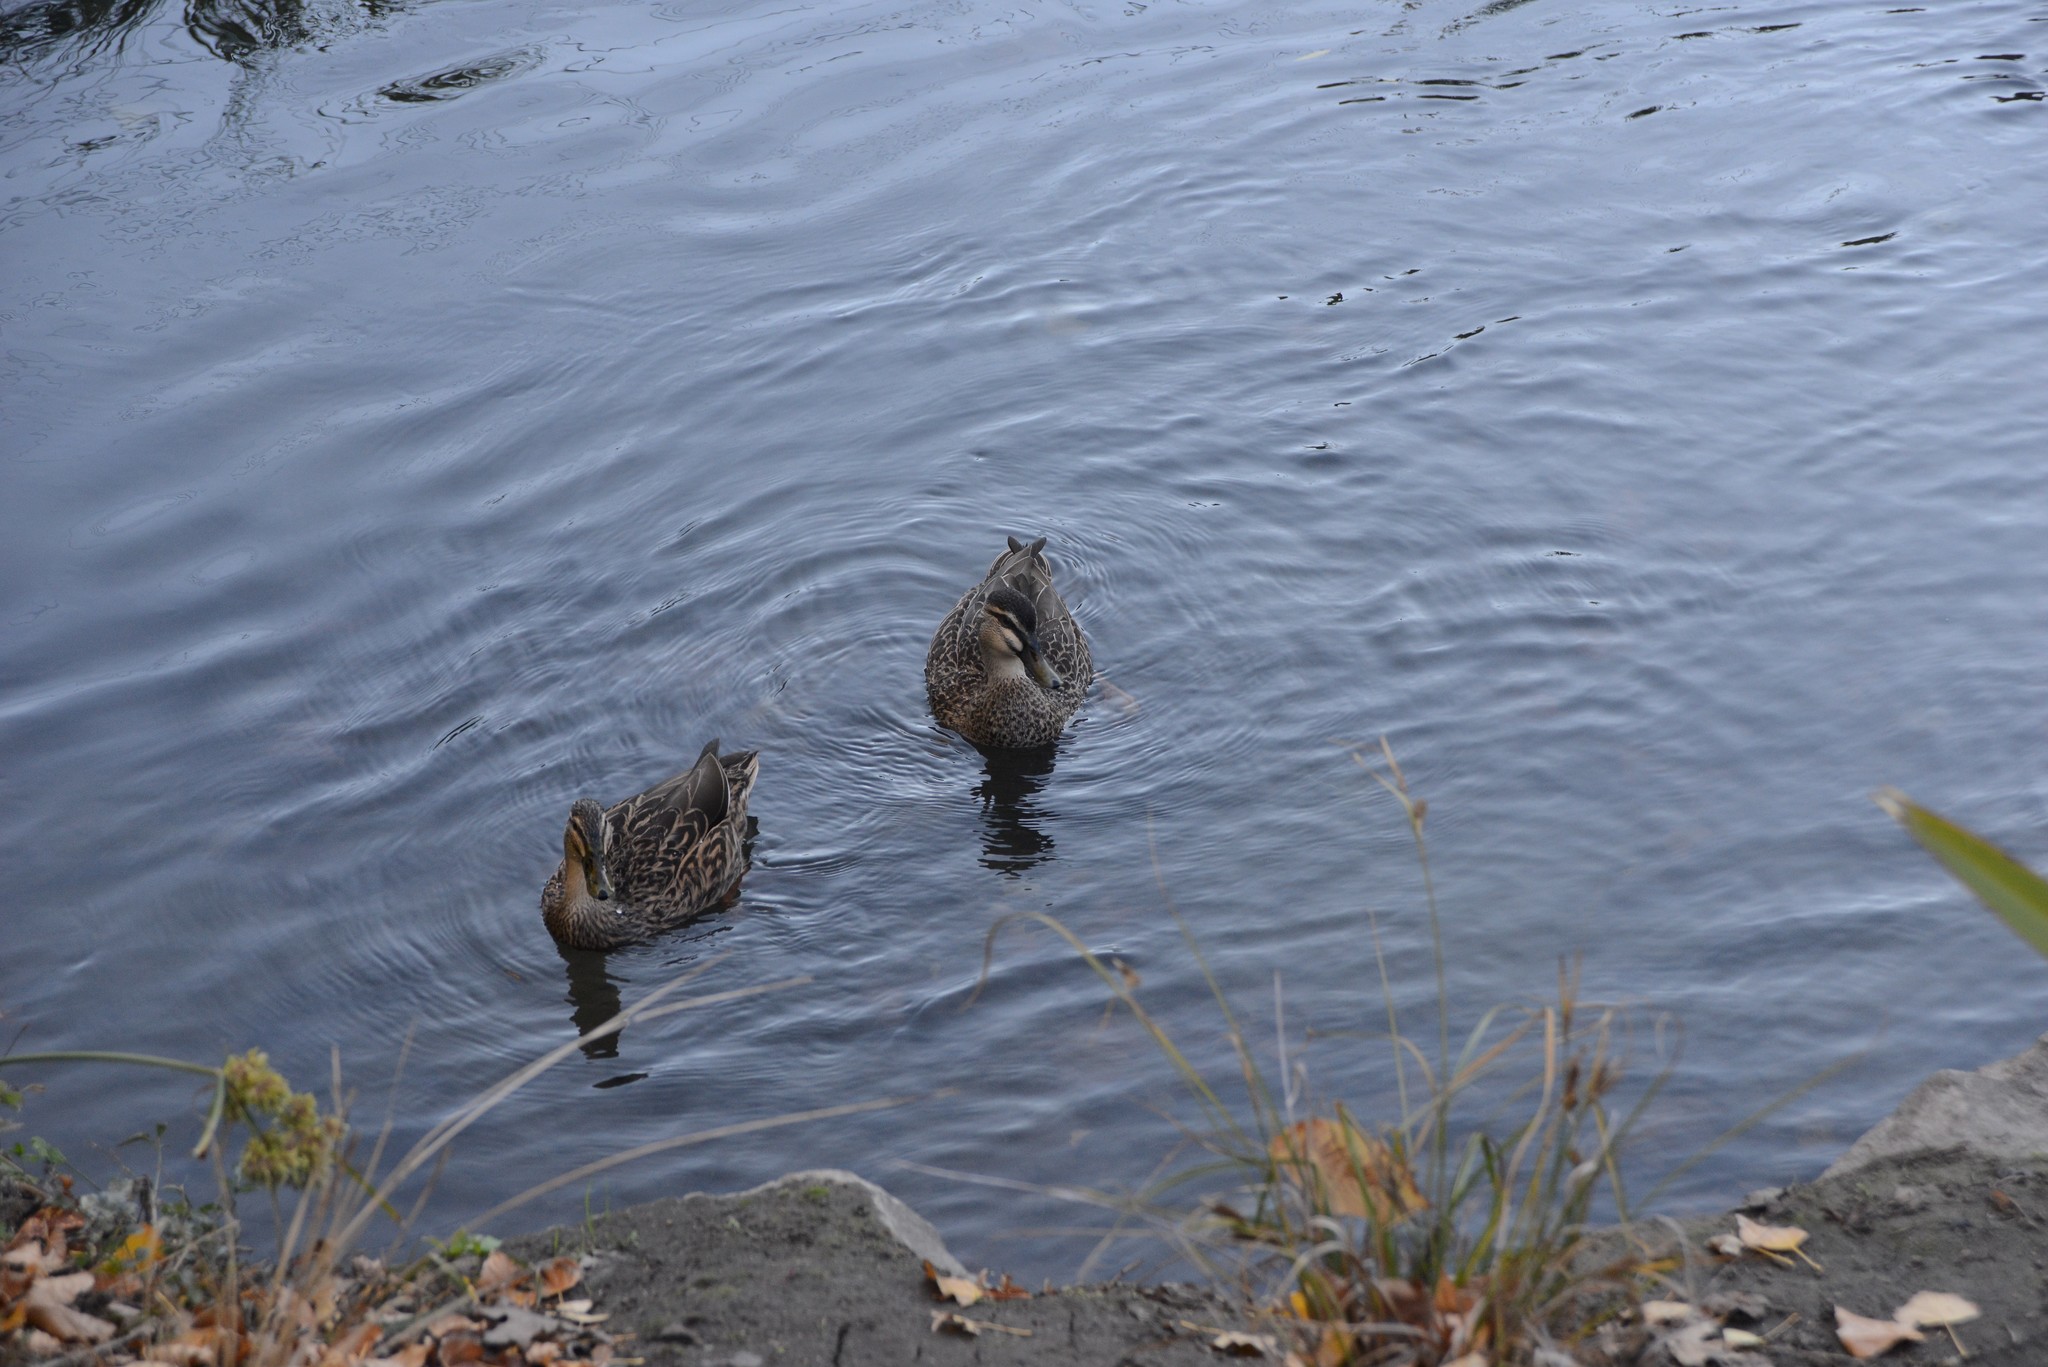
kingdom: Animalia
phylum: Chordata
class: Aves
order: Anseriformes
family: Anatidae
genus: Anas
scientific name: Anas platyrhynchos
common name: Mallard
